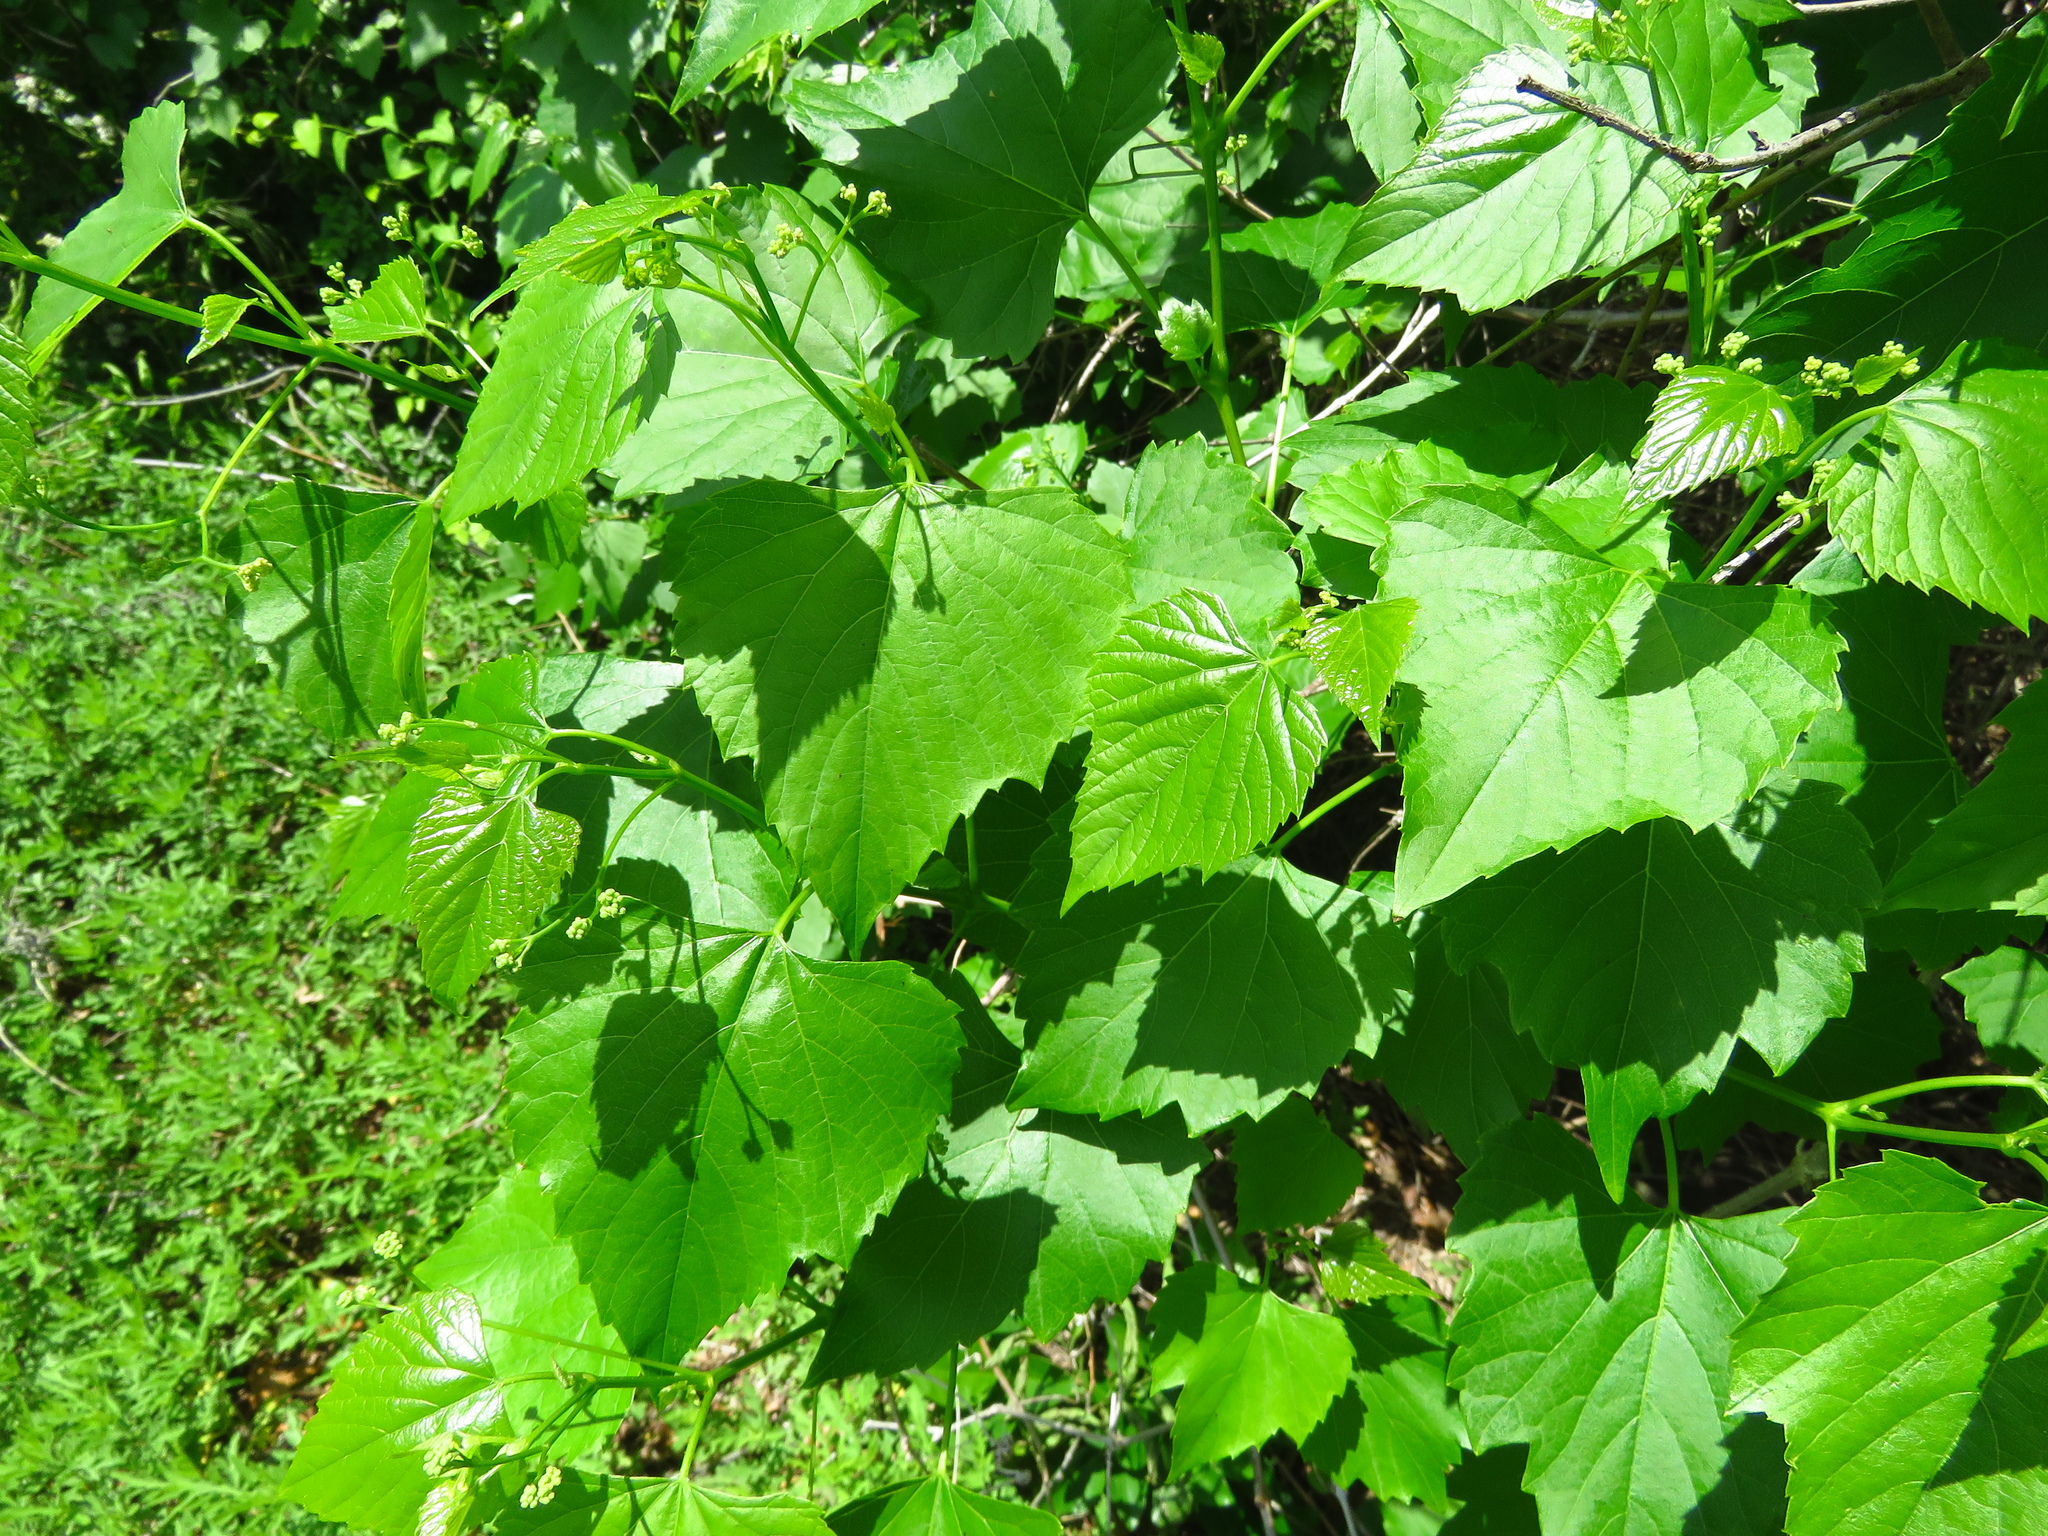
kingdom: Plantae
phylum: Tracheophyta
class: Magnoliopsida
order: Vitales
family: Vitaceae
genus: Ampelopsis
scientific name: Ampelopsis cordata
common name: Heart-leaf ampelopsis
